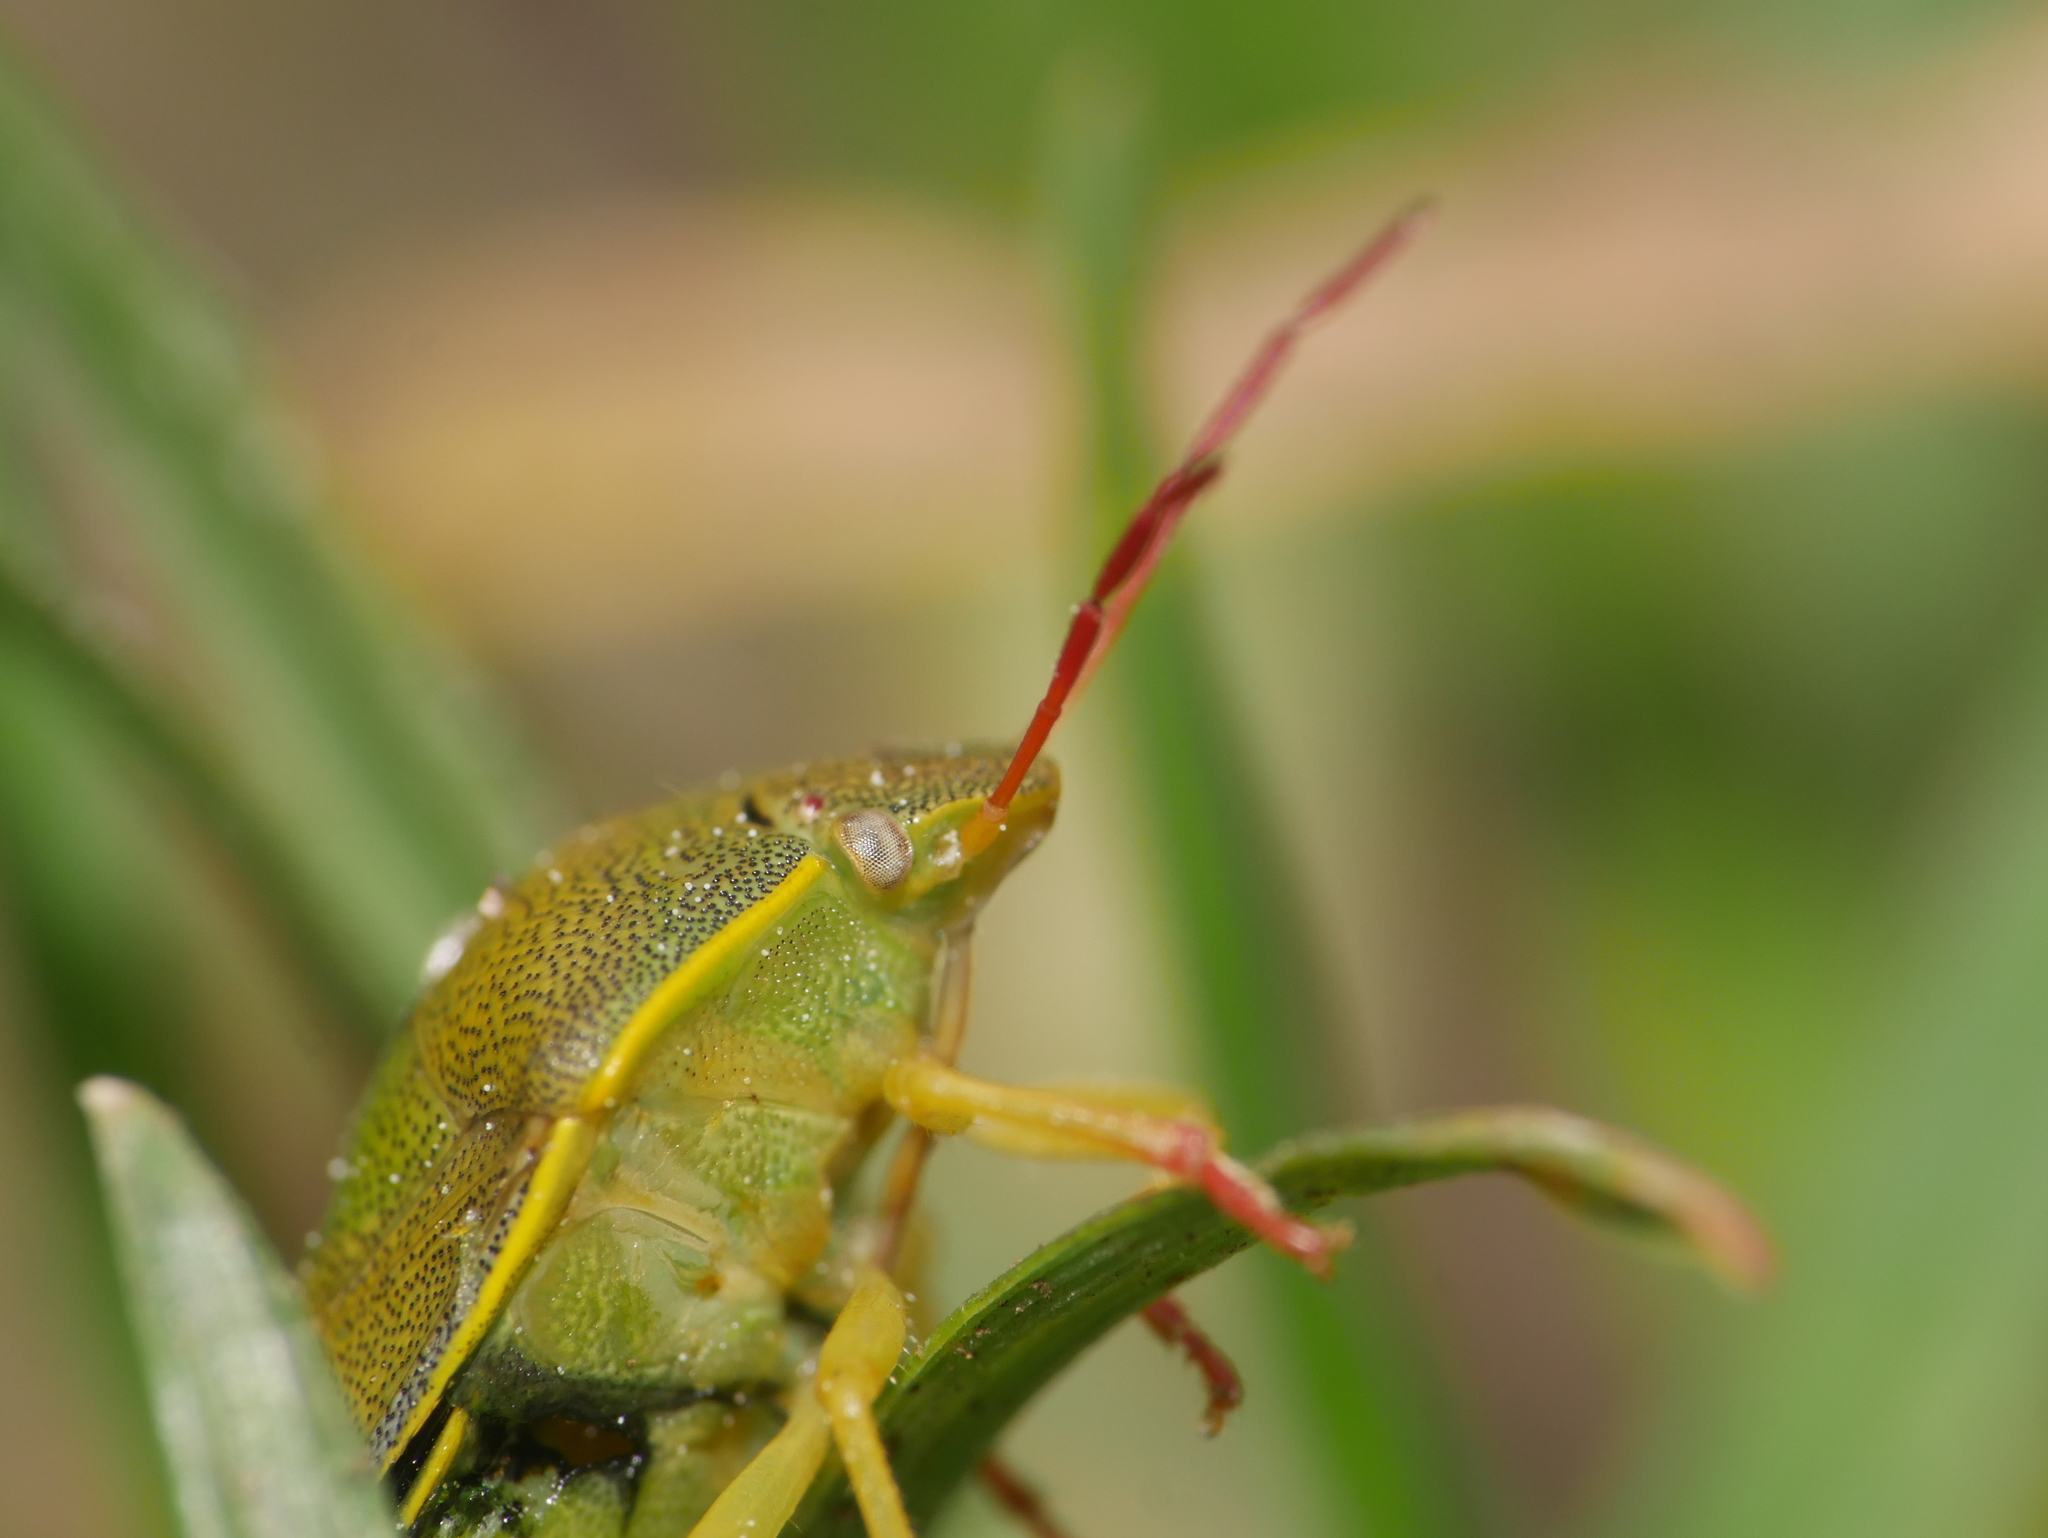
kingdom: Animalia
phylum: Arthropoda
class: Insecta
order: Hemiptera
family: Pentatomidae
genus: Piezodorus
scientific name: Piezodorus lituratus
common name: Stink bug
